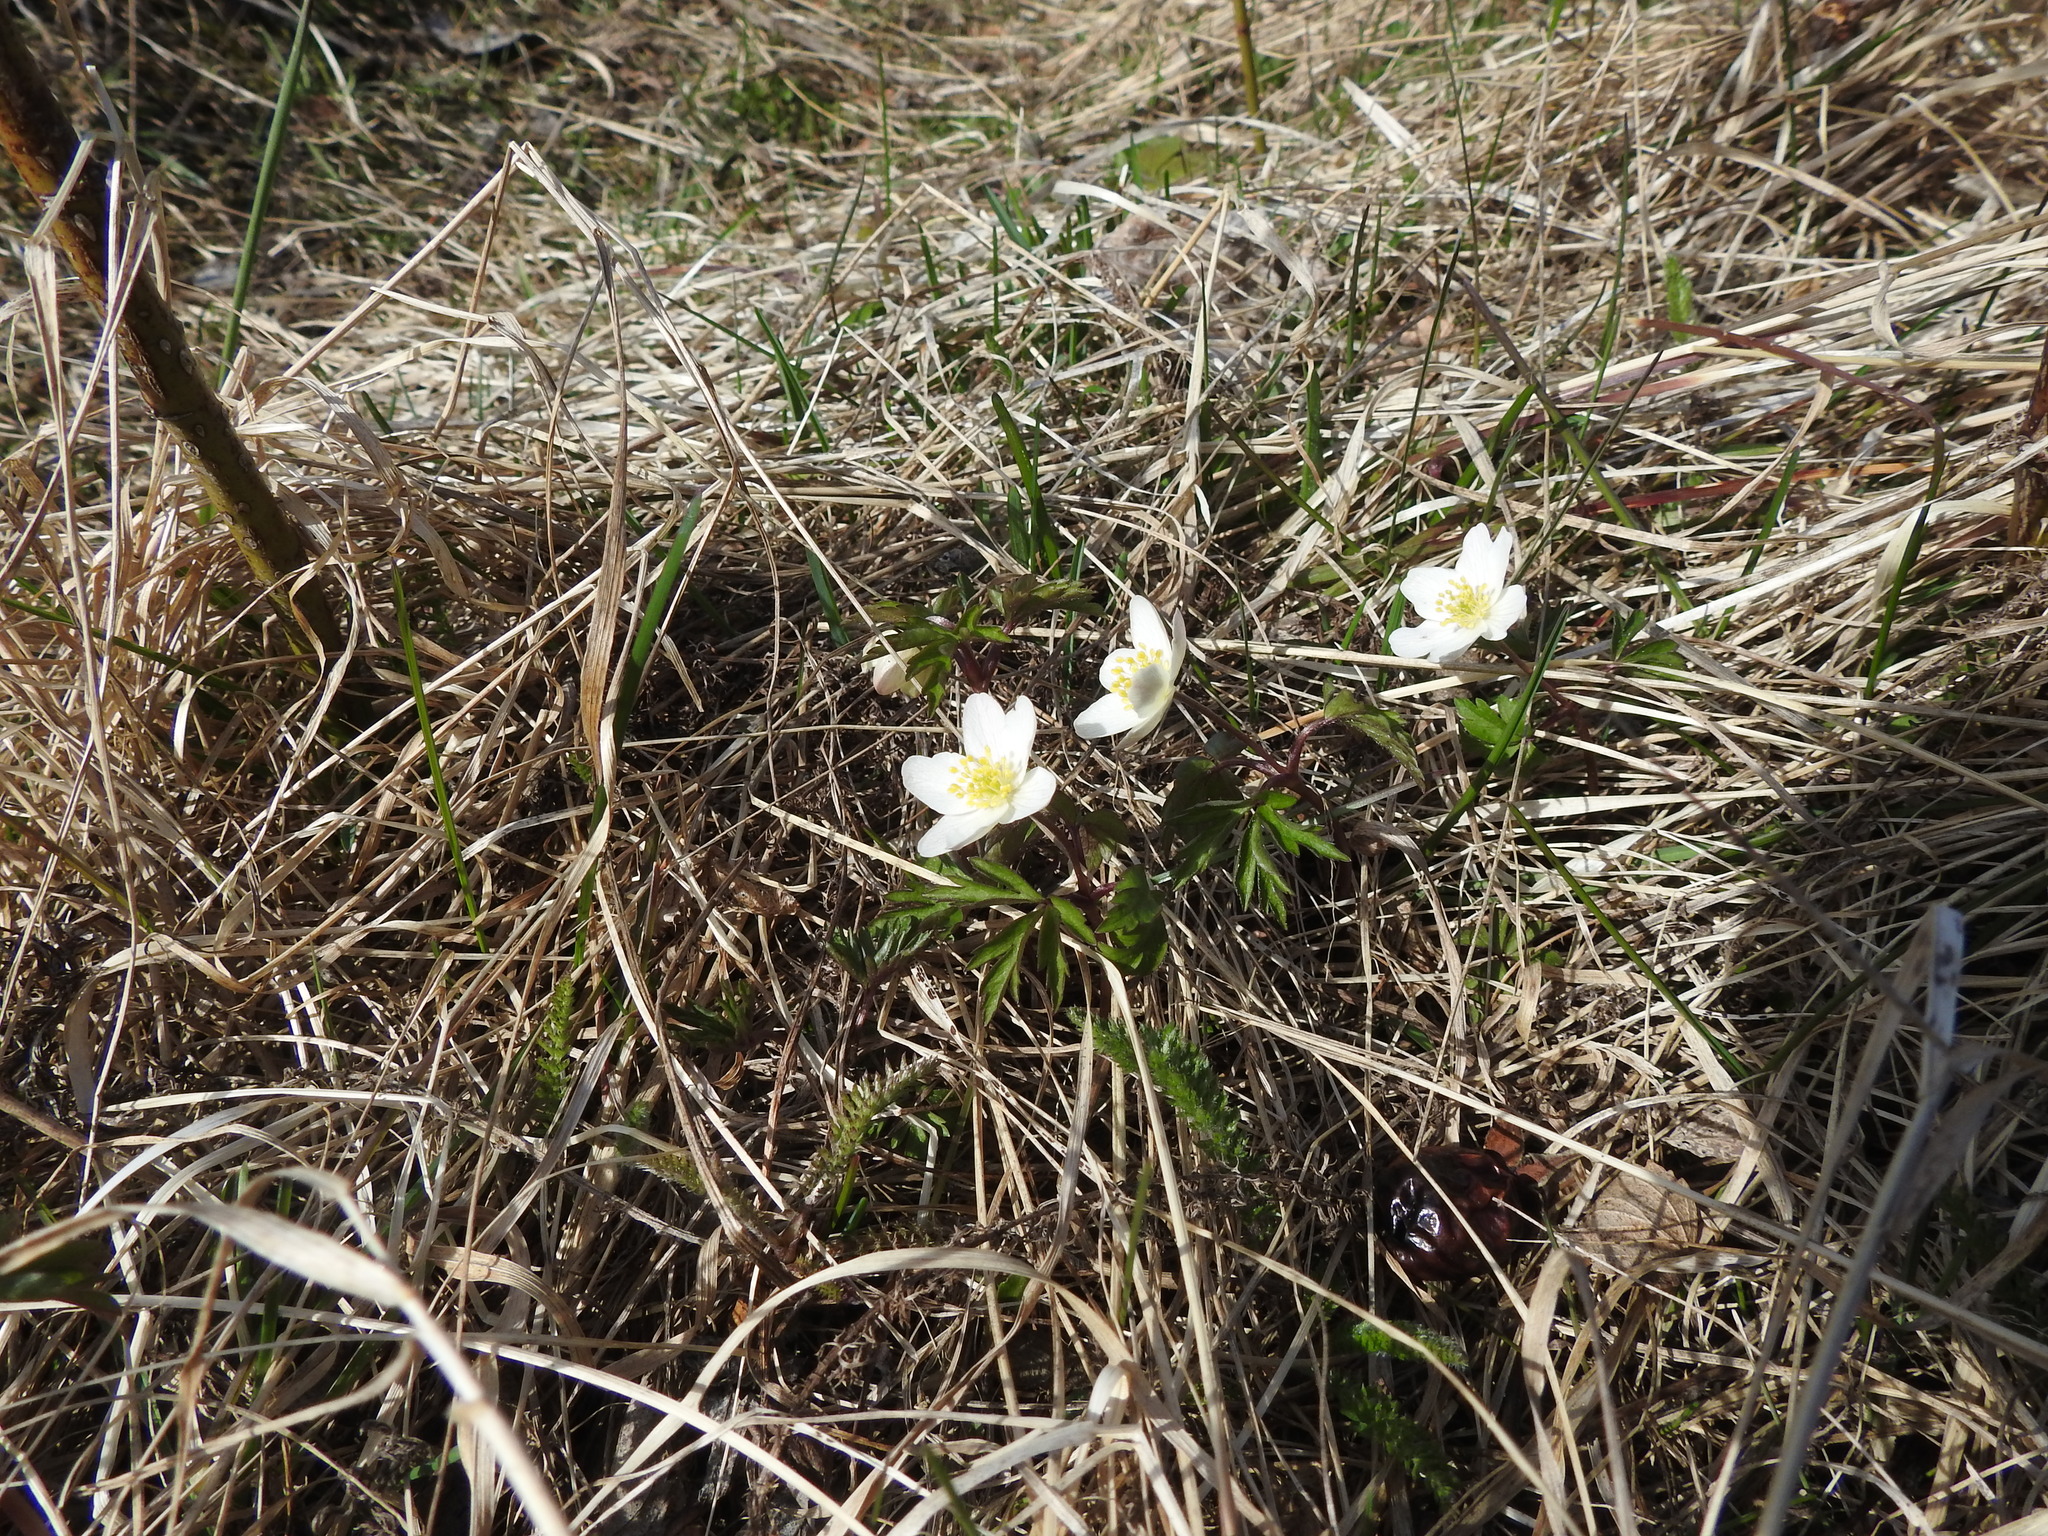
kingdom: Plantae
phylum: Tracheophyta
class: Magnoliopsida
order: Ranunculales
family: Ranunculaceae
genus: Anemone
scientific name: Anemone nemorosa
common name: Wood anemone
